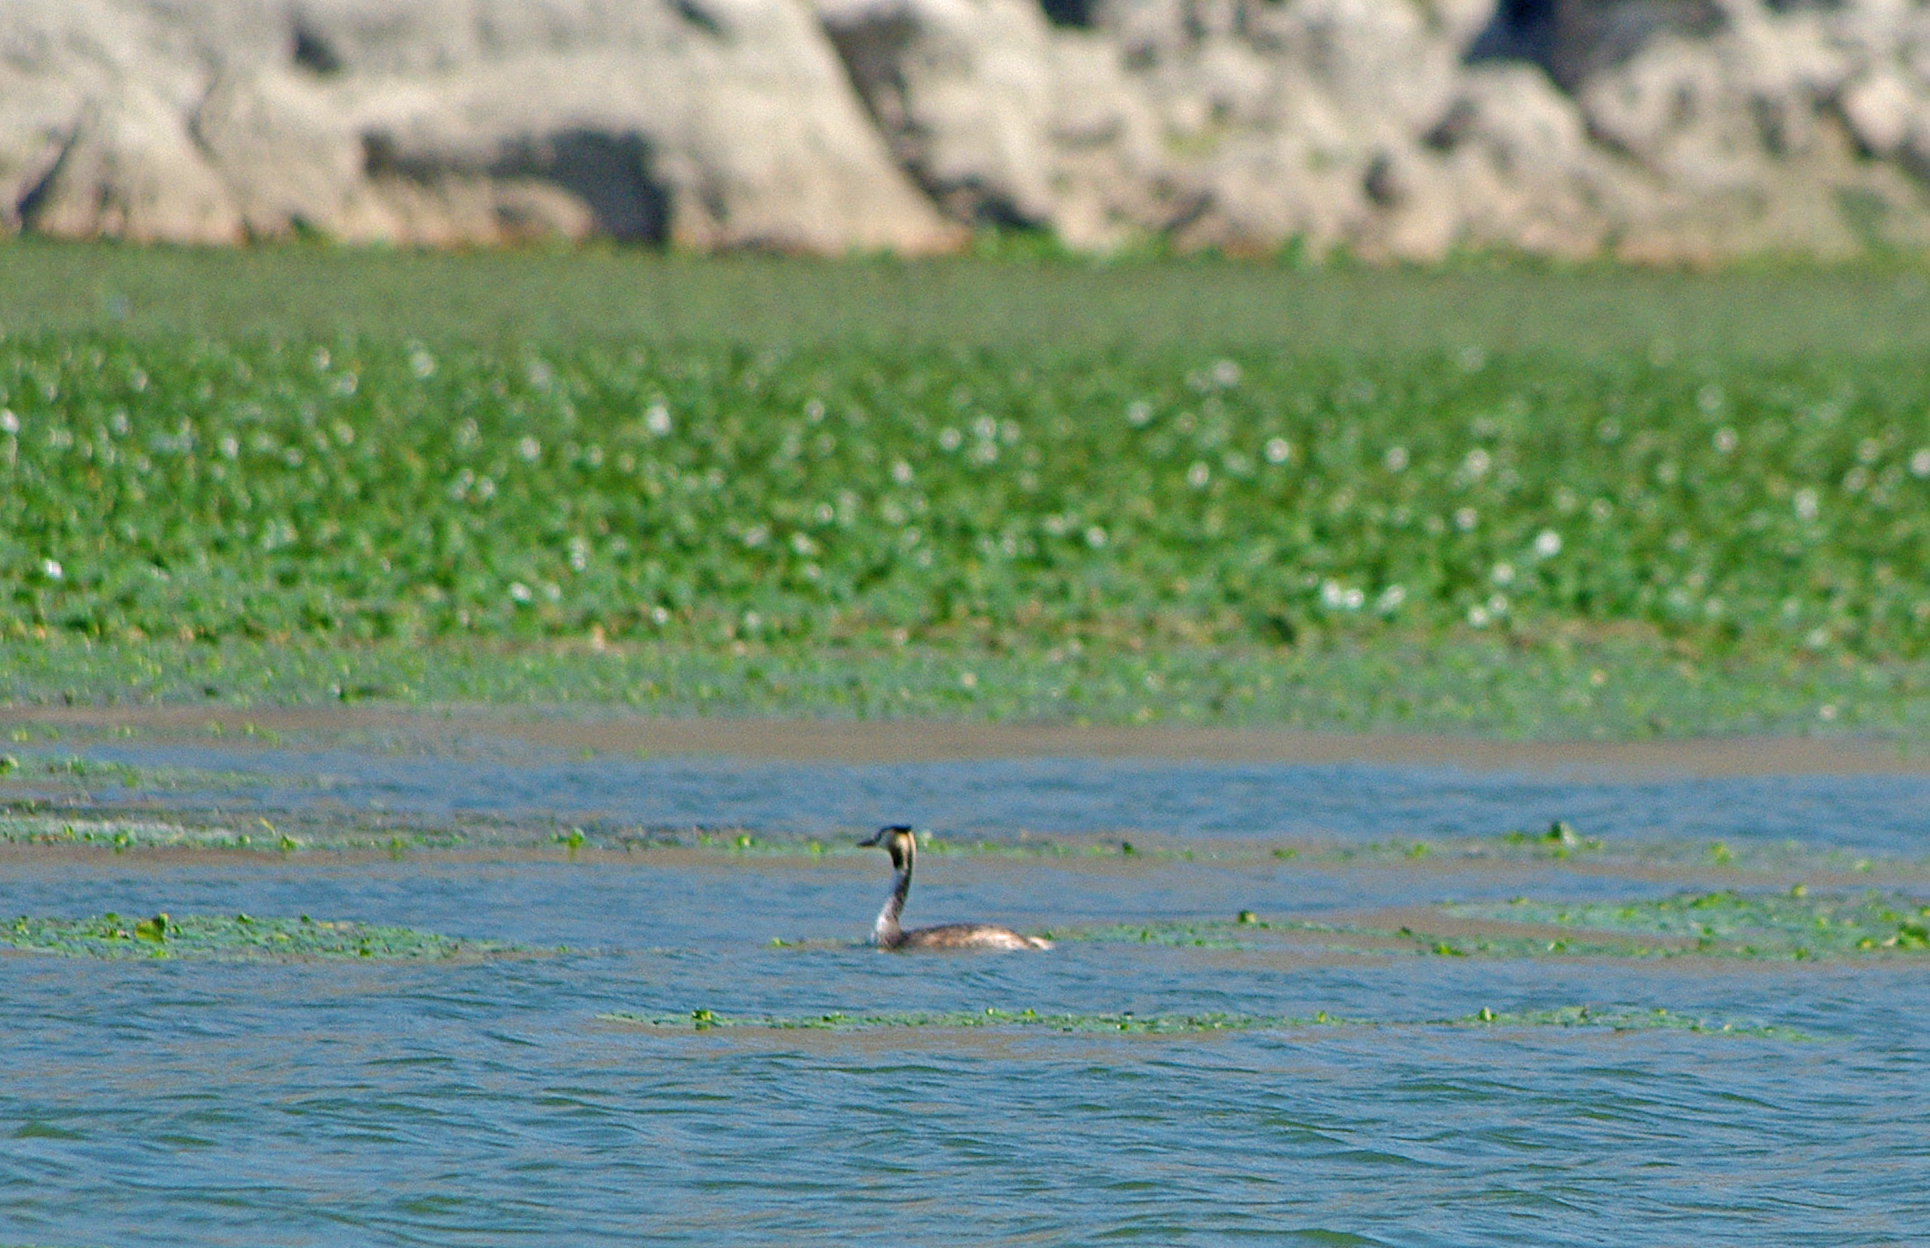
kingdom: Animalia
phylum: Chordata
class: Aves
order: Podicipediformes
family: Podicipedidae
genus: Podiceps
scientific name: Podiceps cristatus
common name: Great crested grebe
